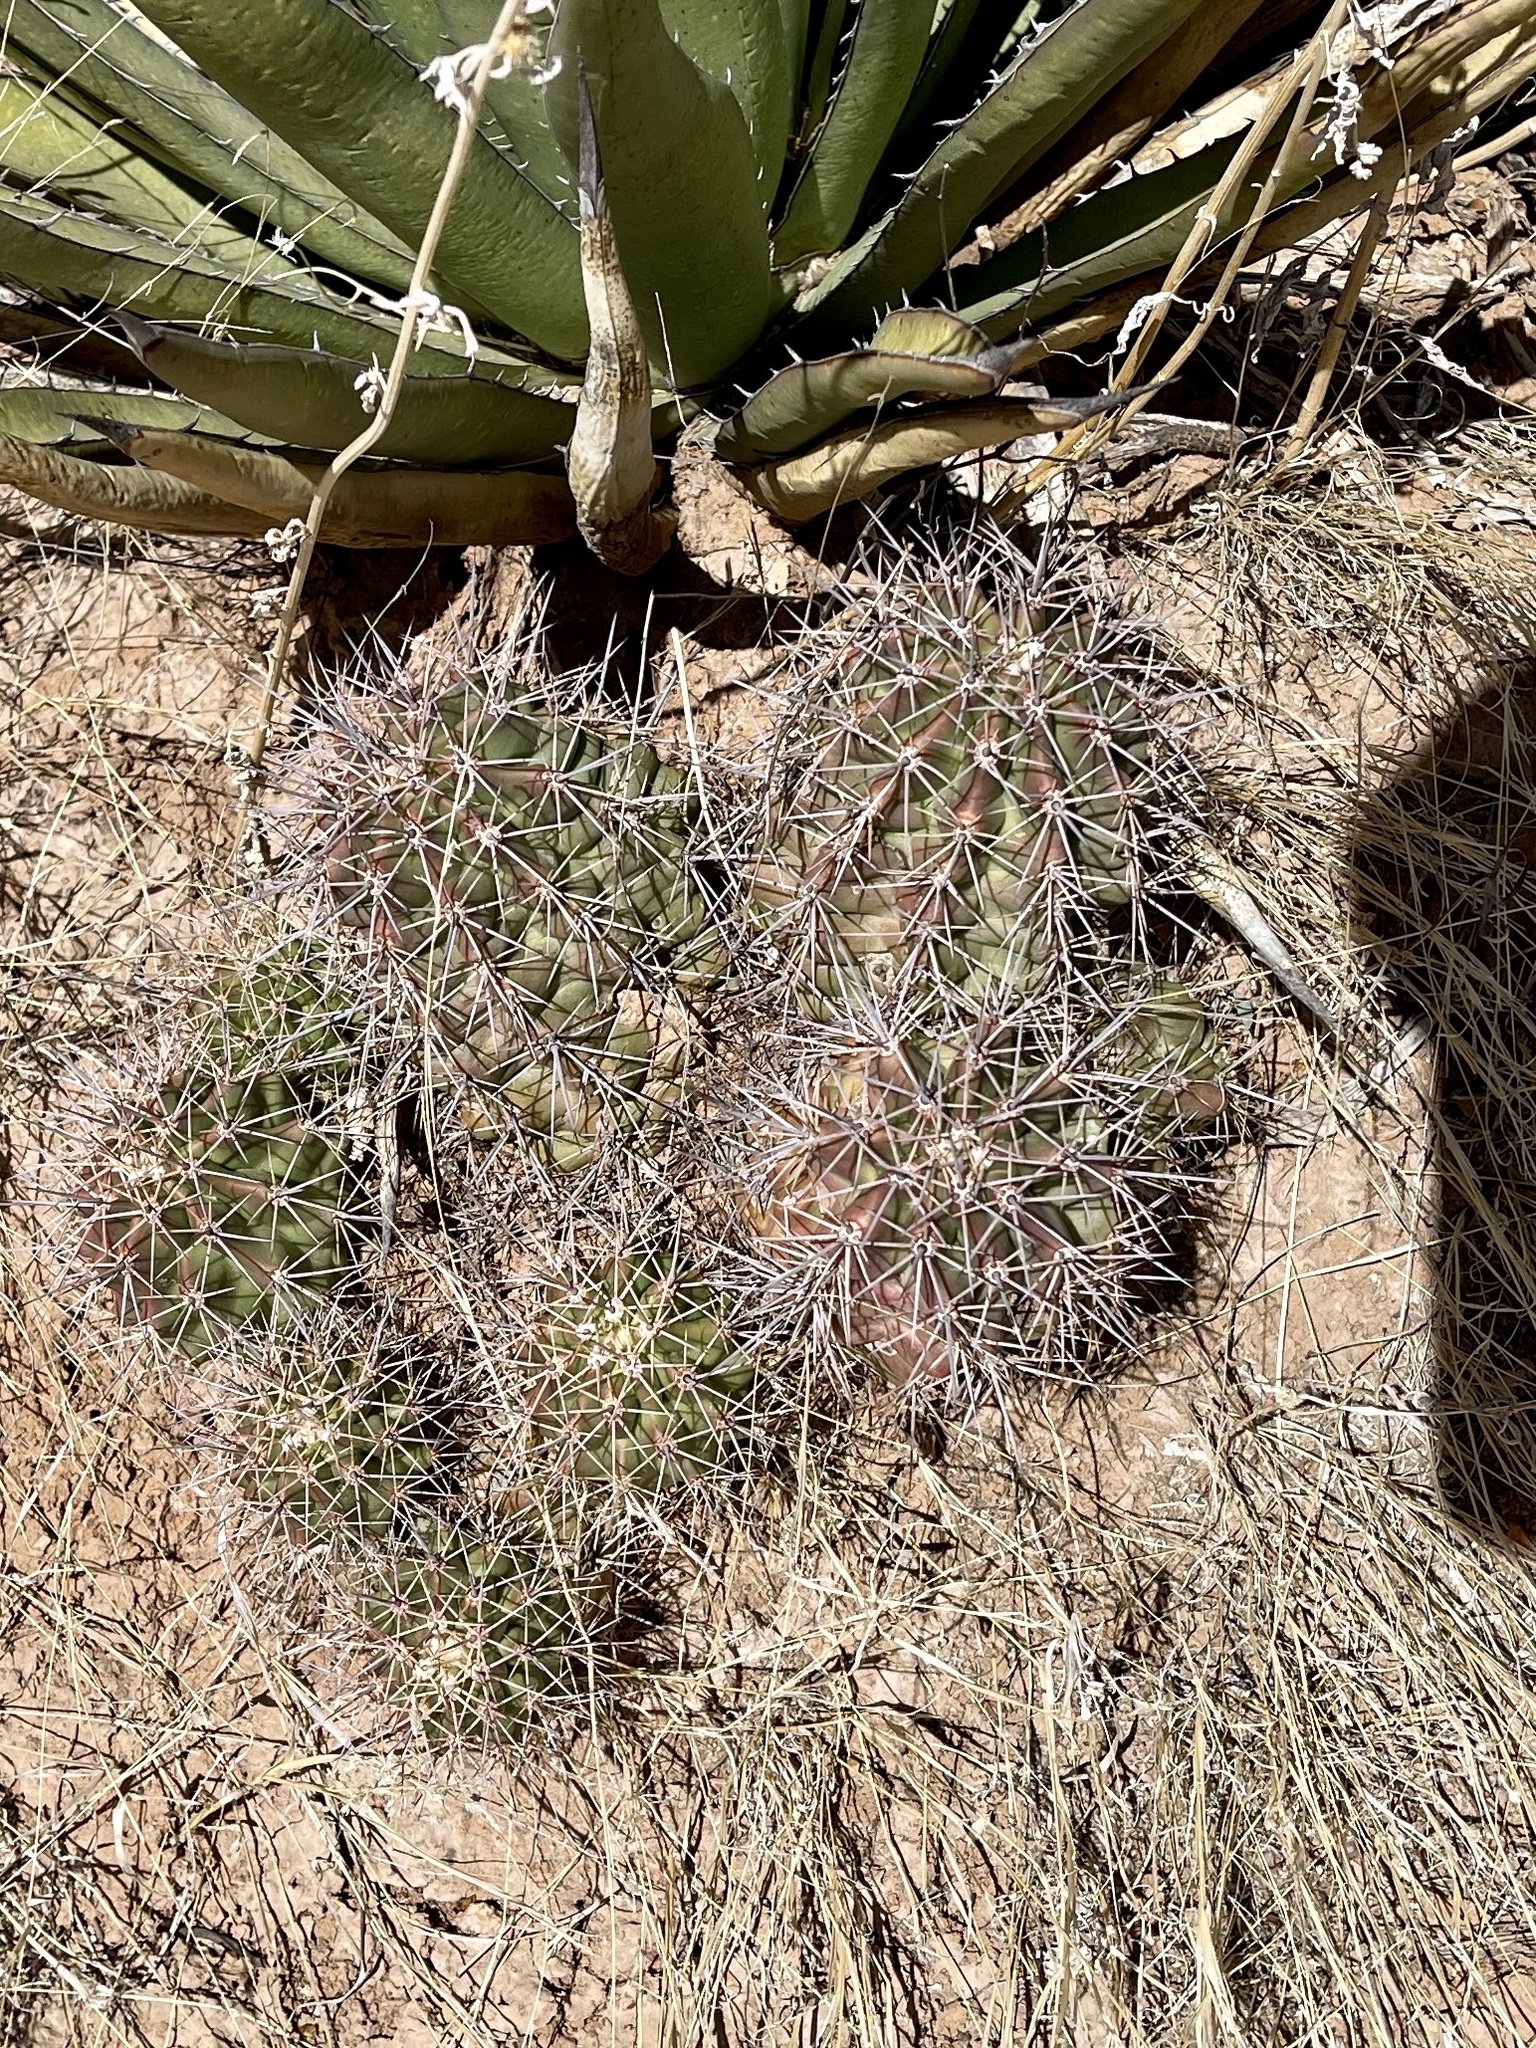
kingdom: Plantae
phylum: Tracheophyta
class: Magnoliopsida
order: Caryophyllales
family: Cactaceae
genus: Echinocereus
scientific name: Echinocereus coccineus
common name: Scarlet hedgehog cactus
